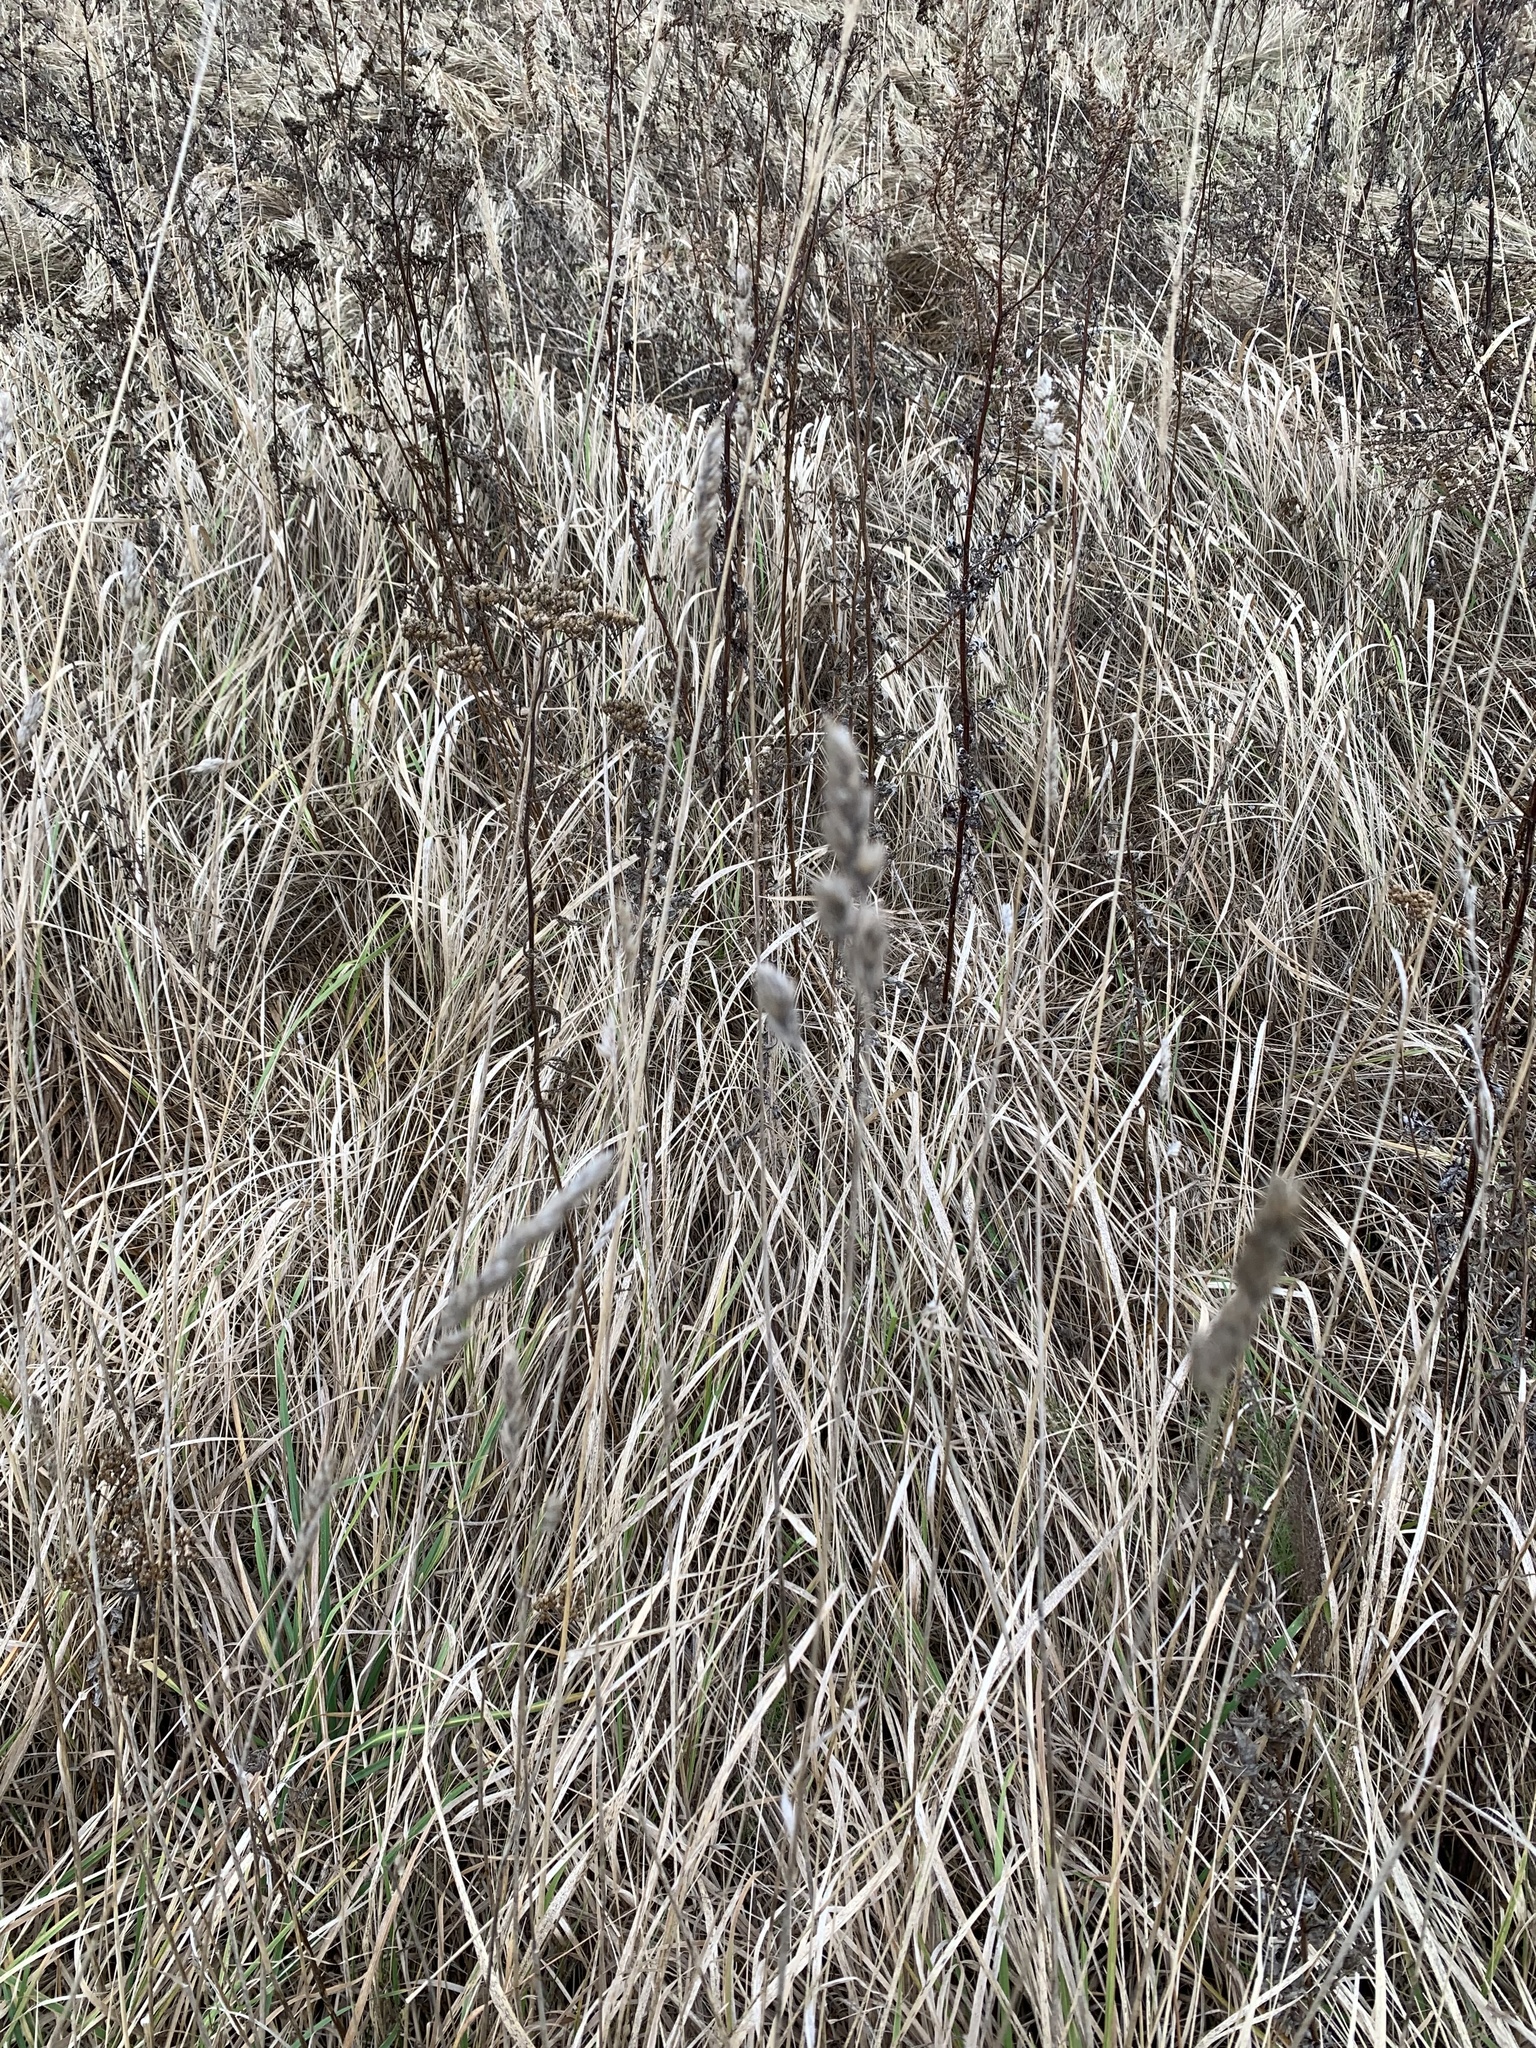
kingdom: Plantae
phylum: Tracheophyta
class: Liliopsida
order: Poales
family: Poaceae
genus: Dactylis
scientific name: Dactylis glomerata
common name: Orchardgrass
